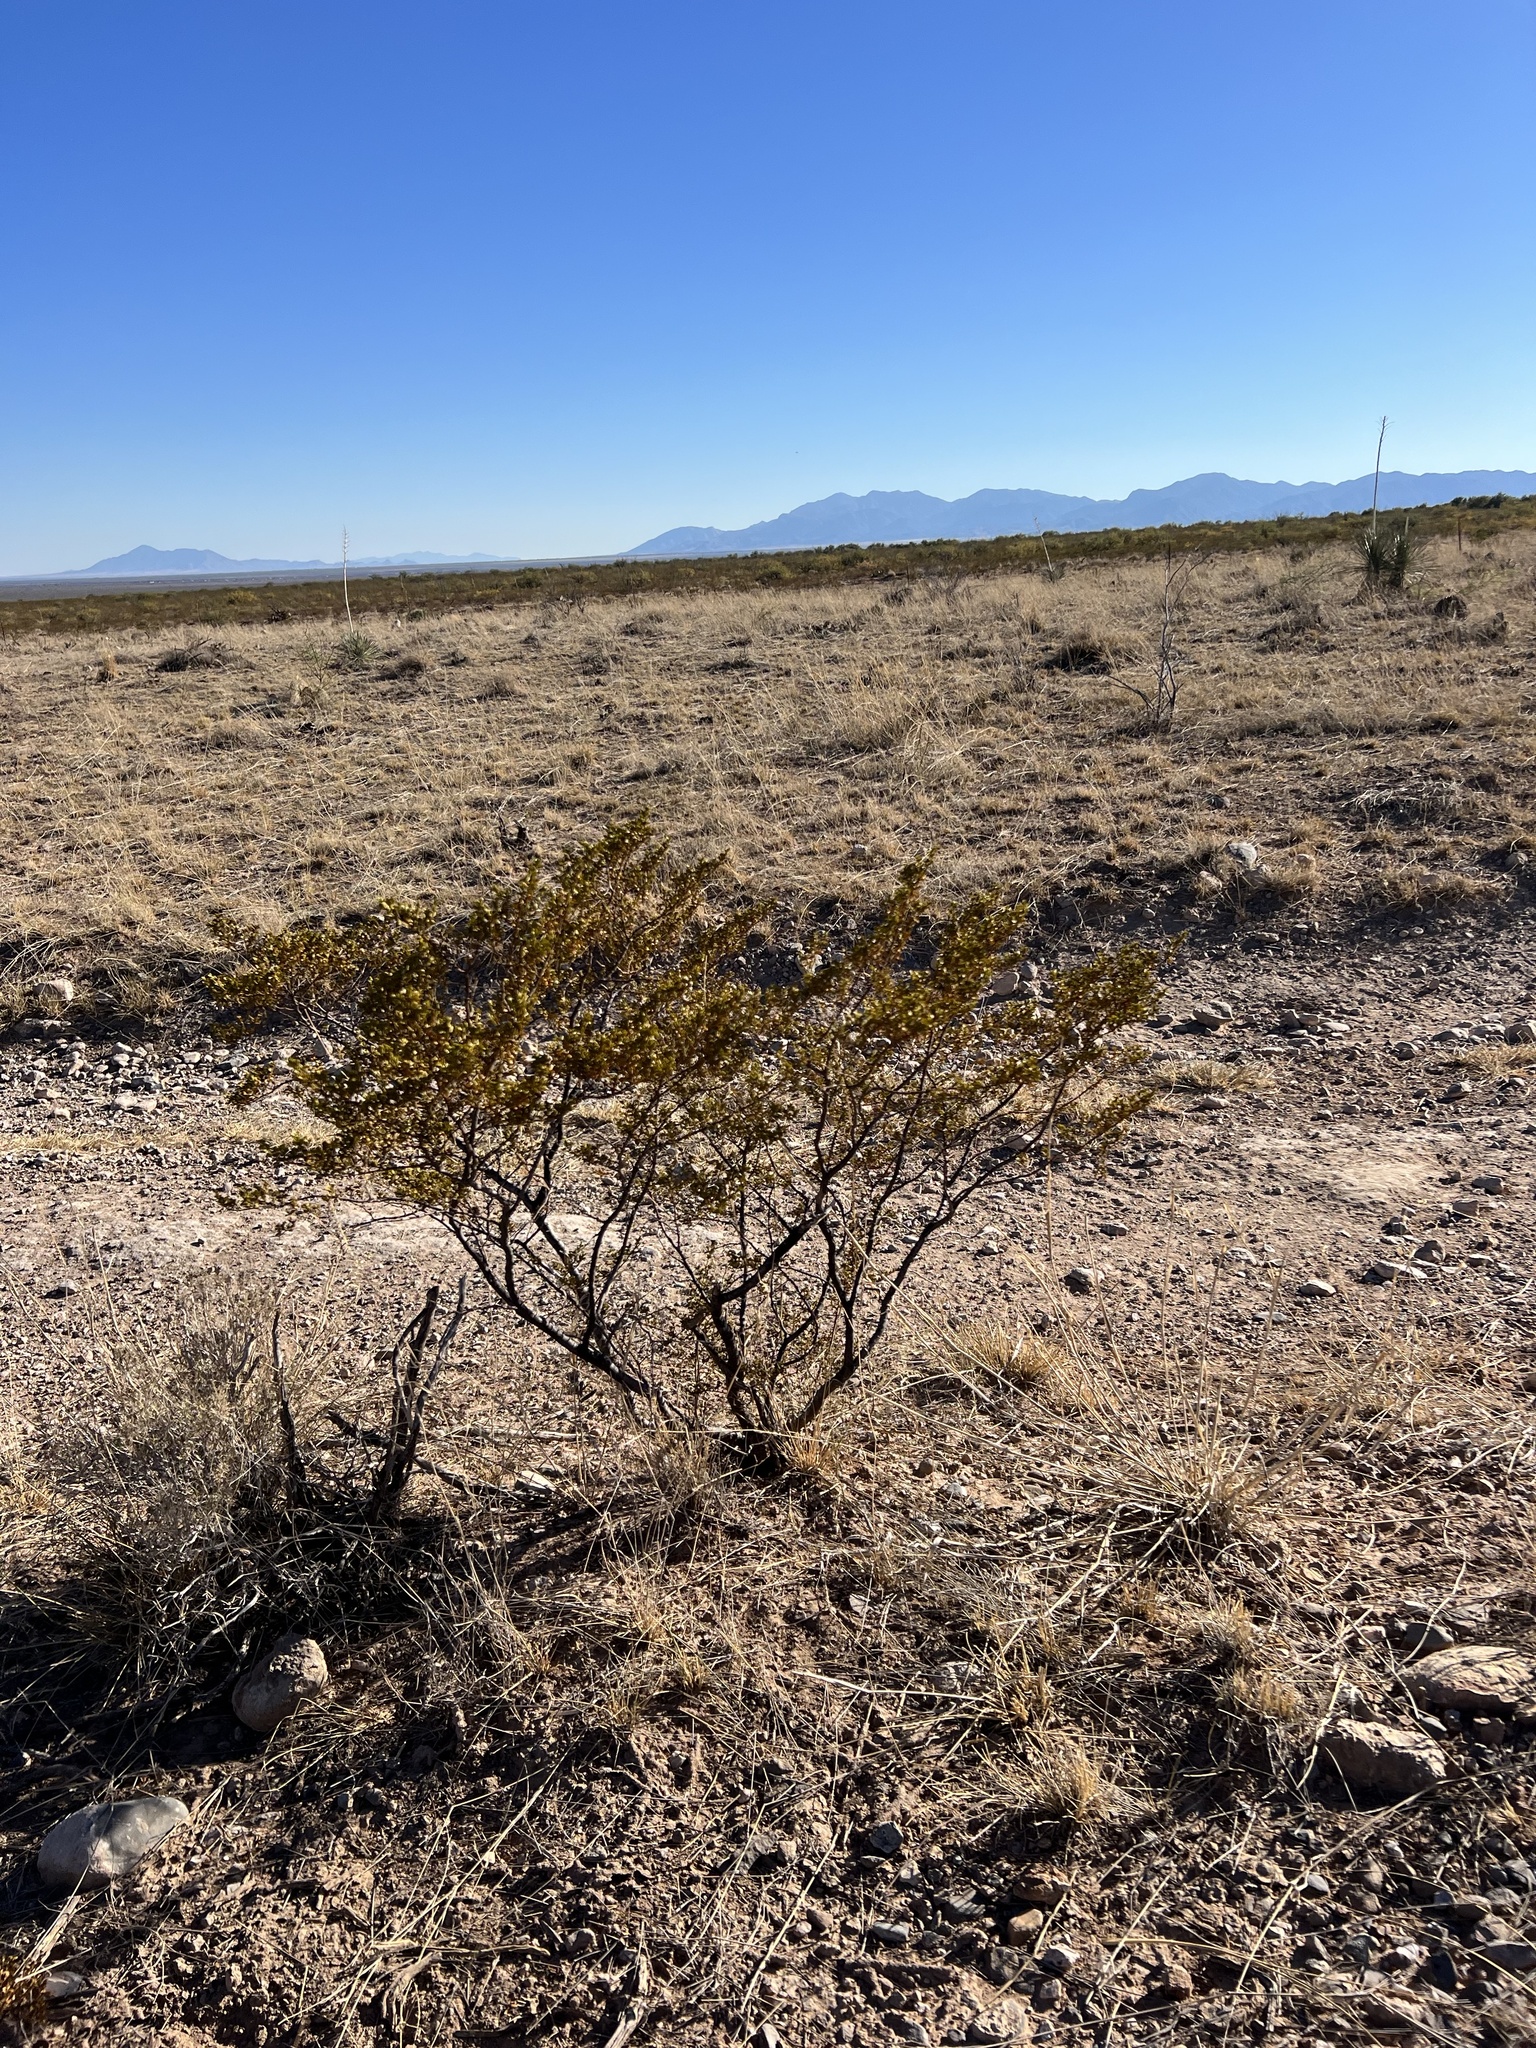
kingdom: Plantae
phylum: Tracheophyta
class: Magnoliopsida
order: Zygophyllales
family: Zygophyllaceae
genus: Larrea
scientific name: Larrea tridentata
